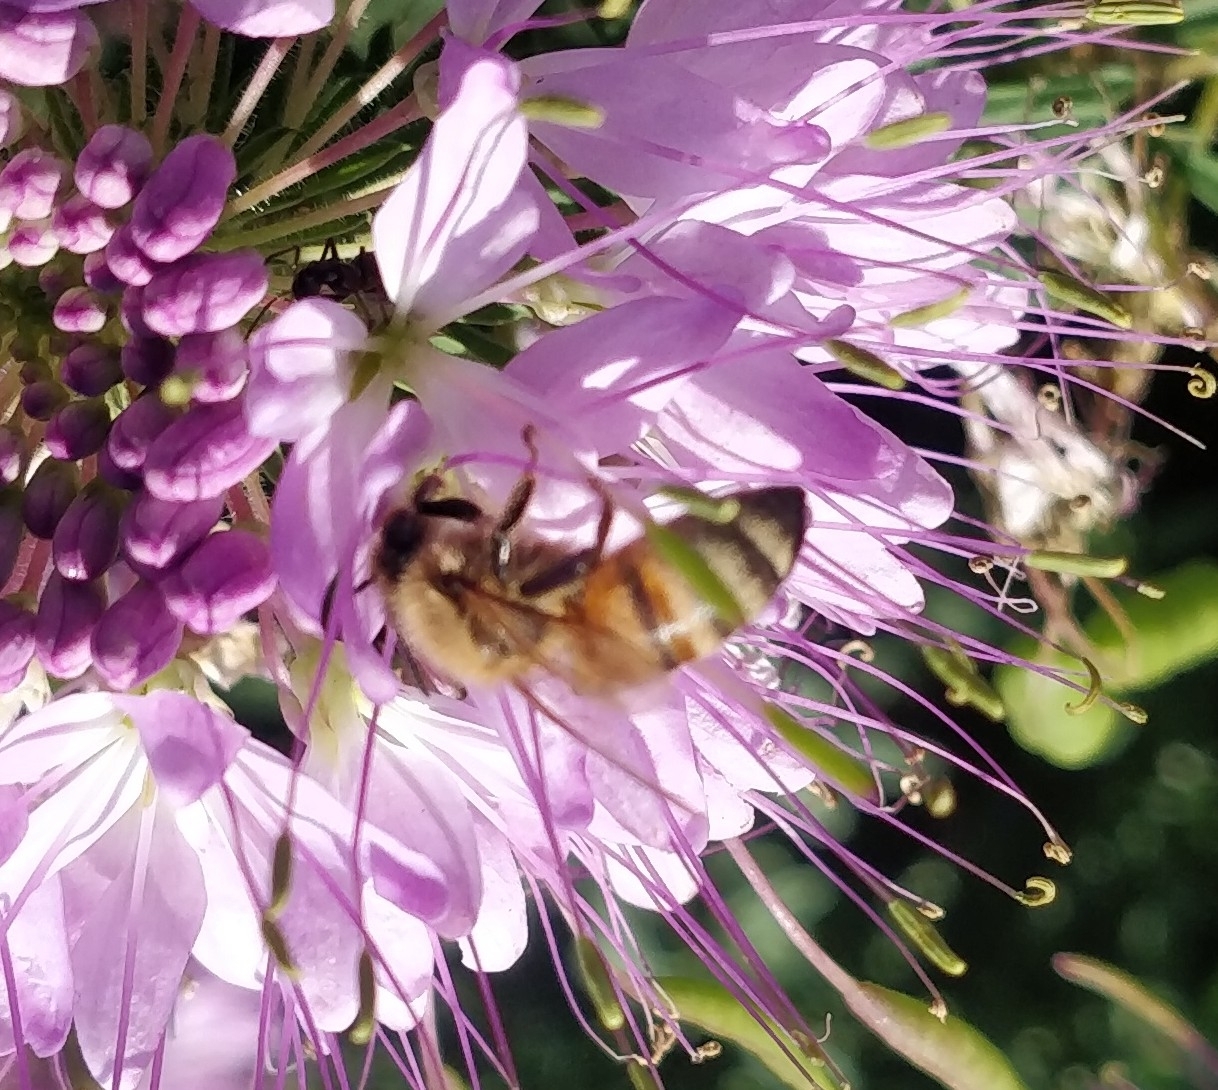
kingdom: Animalia
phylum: Arthropoda
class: Insecta
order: Hymenoptera
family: Apidae
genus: Apis
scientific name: Apis mellifera
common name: Honey bee
